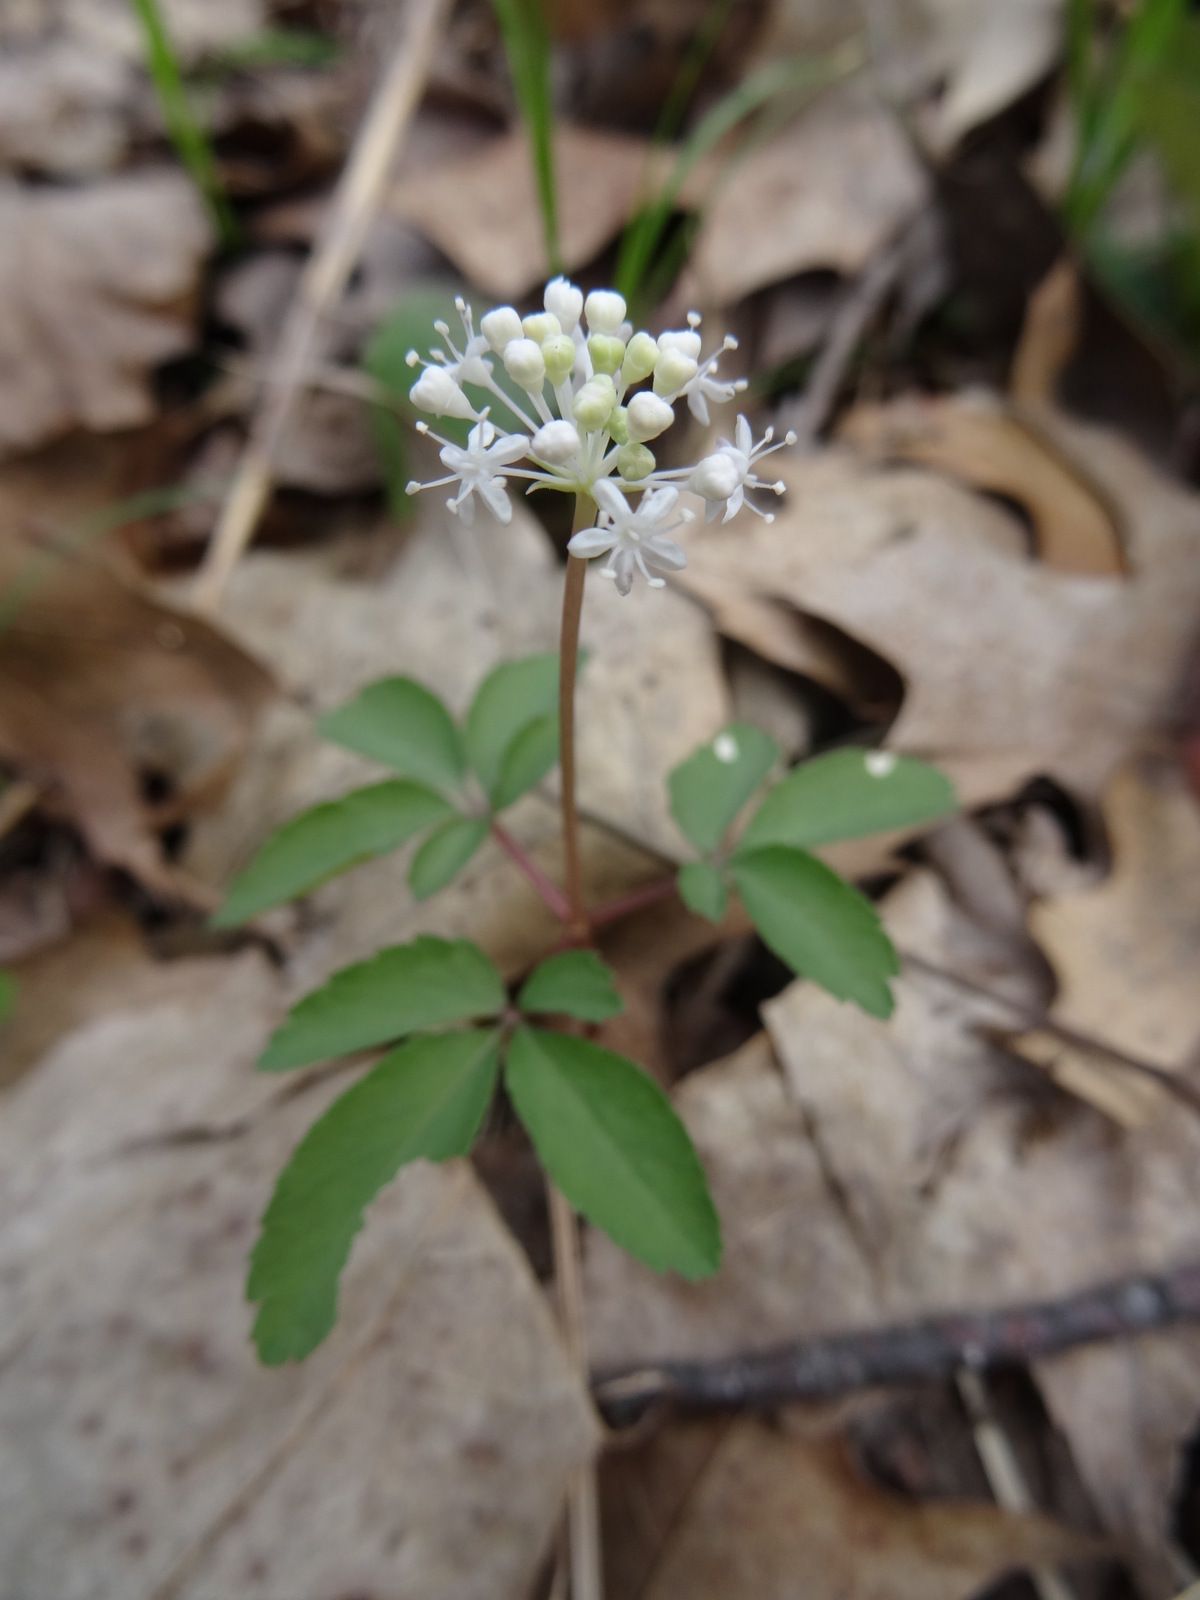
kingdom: Plantae
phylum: Tracheophyta
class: Magnoliopsida
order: Apiales
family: Araliaceae
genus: Panax
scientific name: Panax trifolius
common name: Dwarf ginseng
